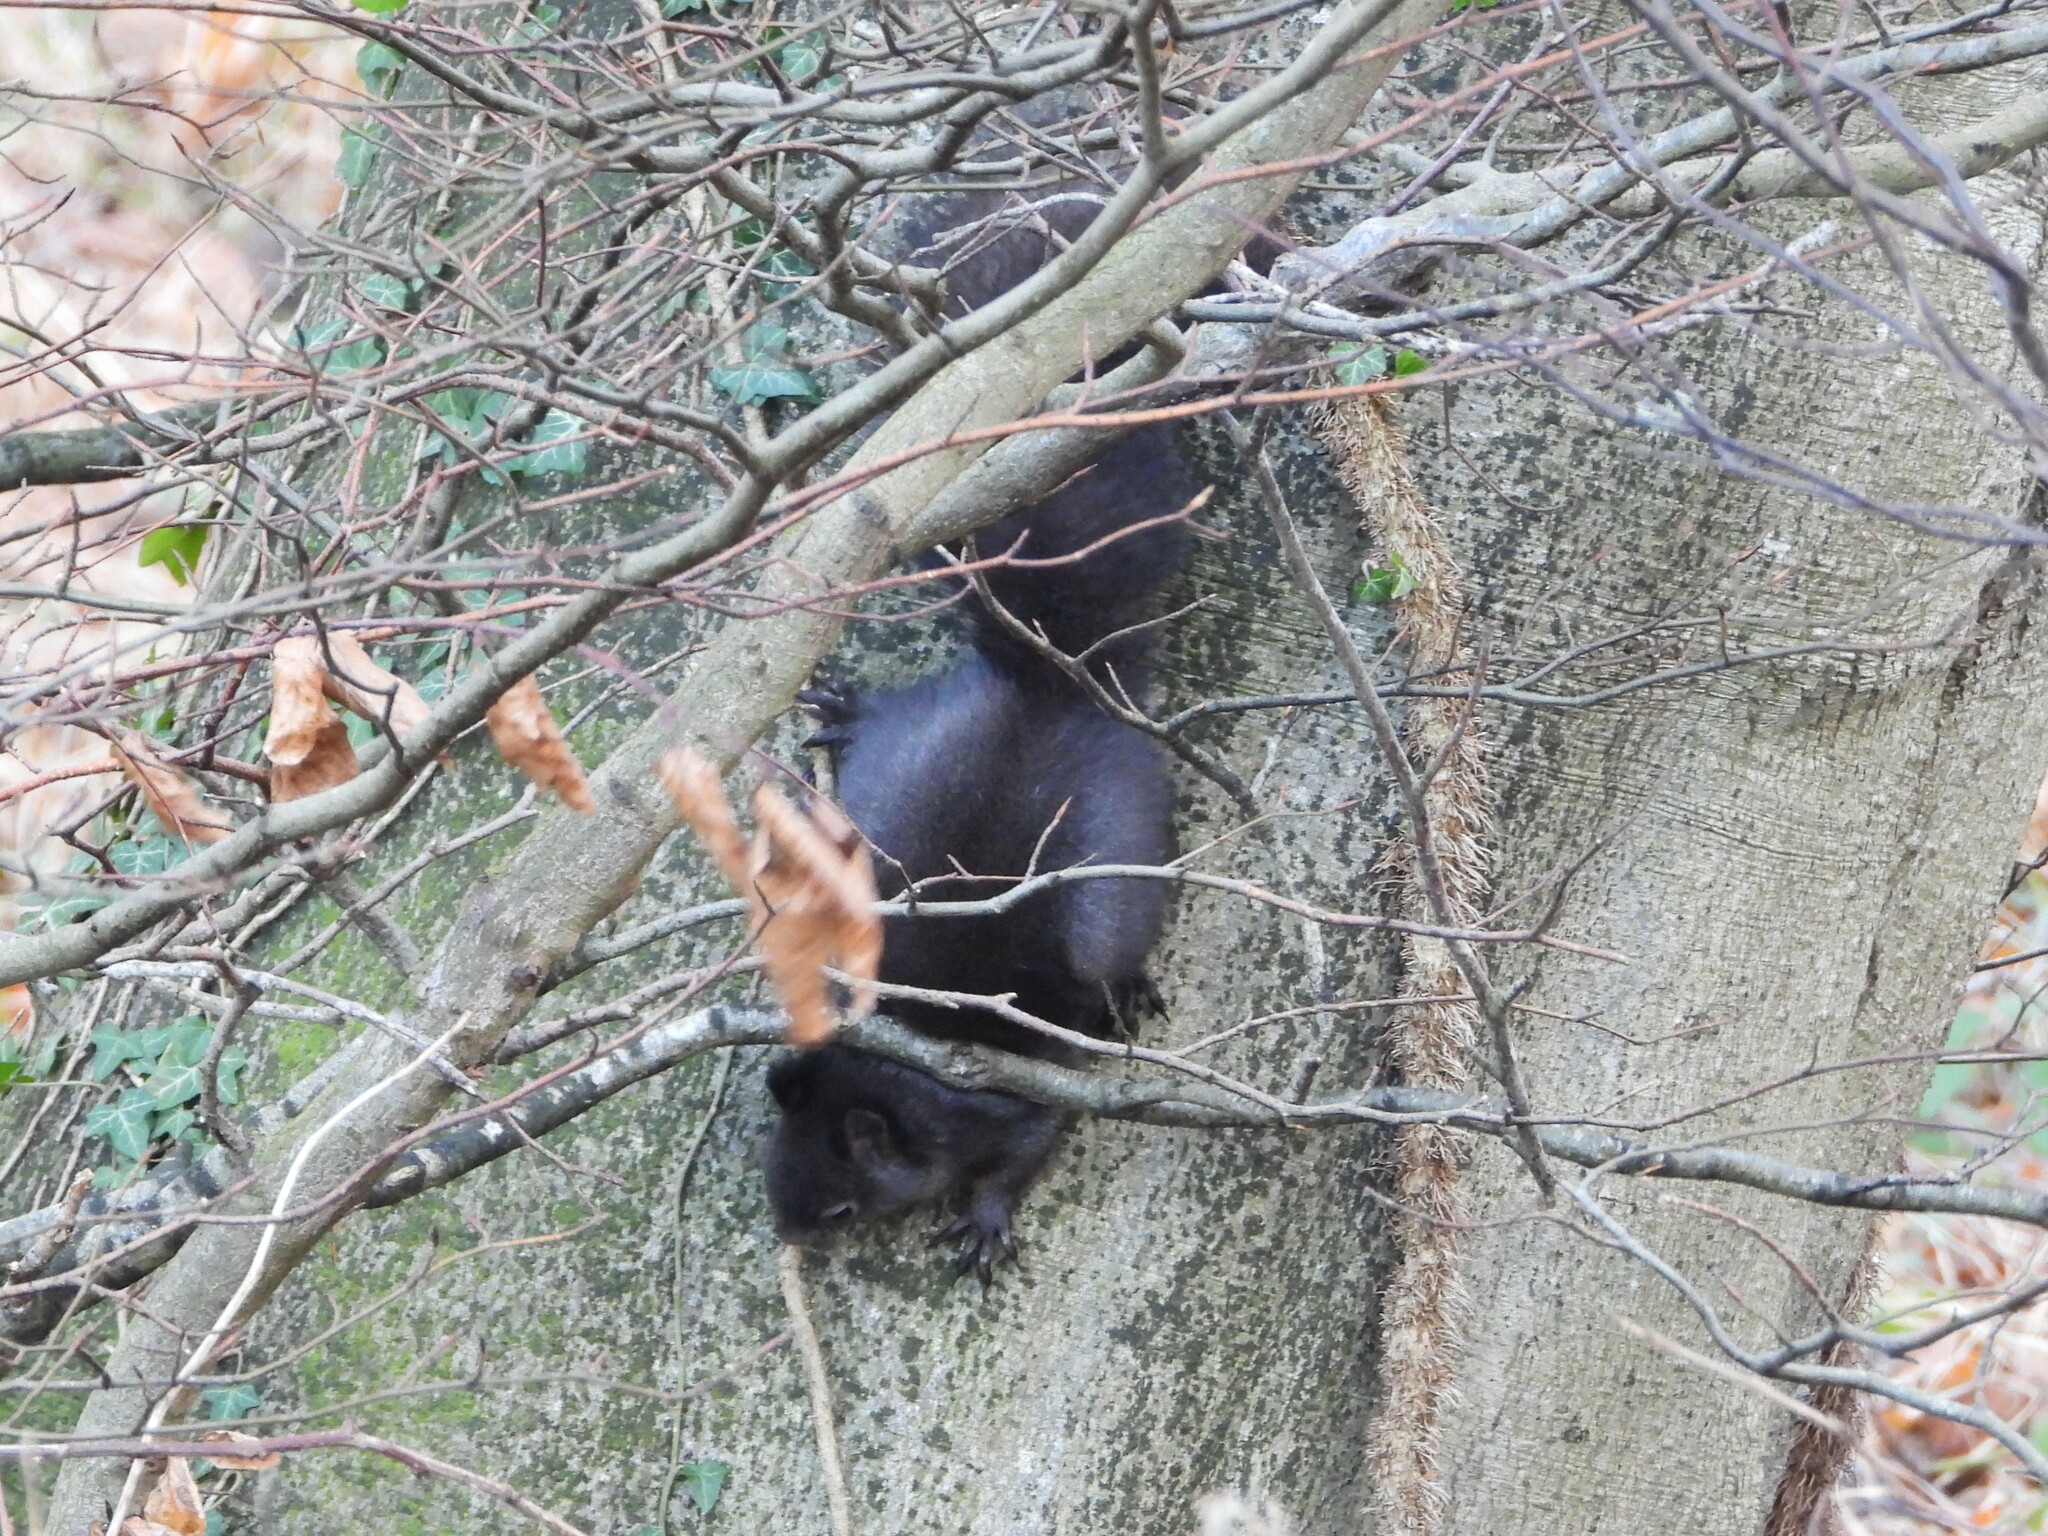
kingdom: Animalia
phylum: Chordata
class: Mammalia
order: Rodentia
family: Sciuridae
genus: Sciurus
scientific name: Sciurus vulgaris
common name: Eurasian red squirrel
